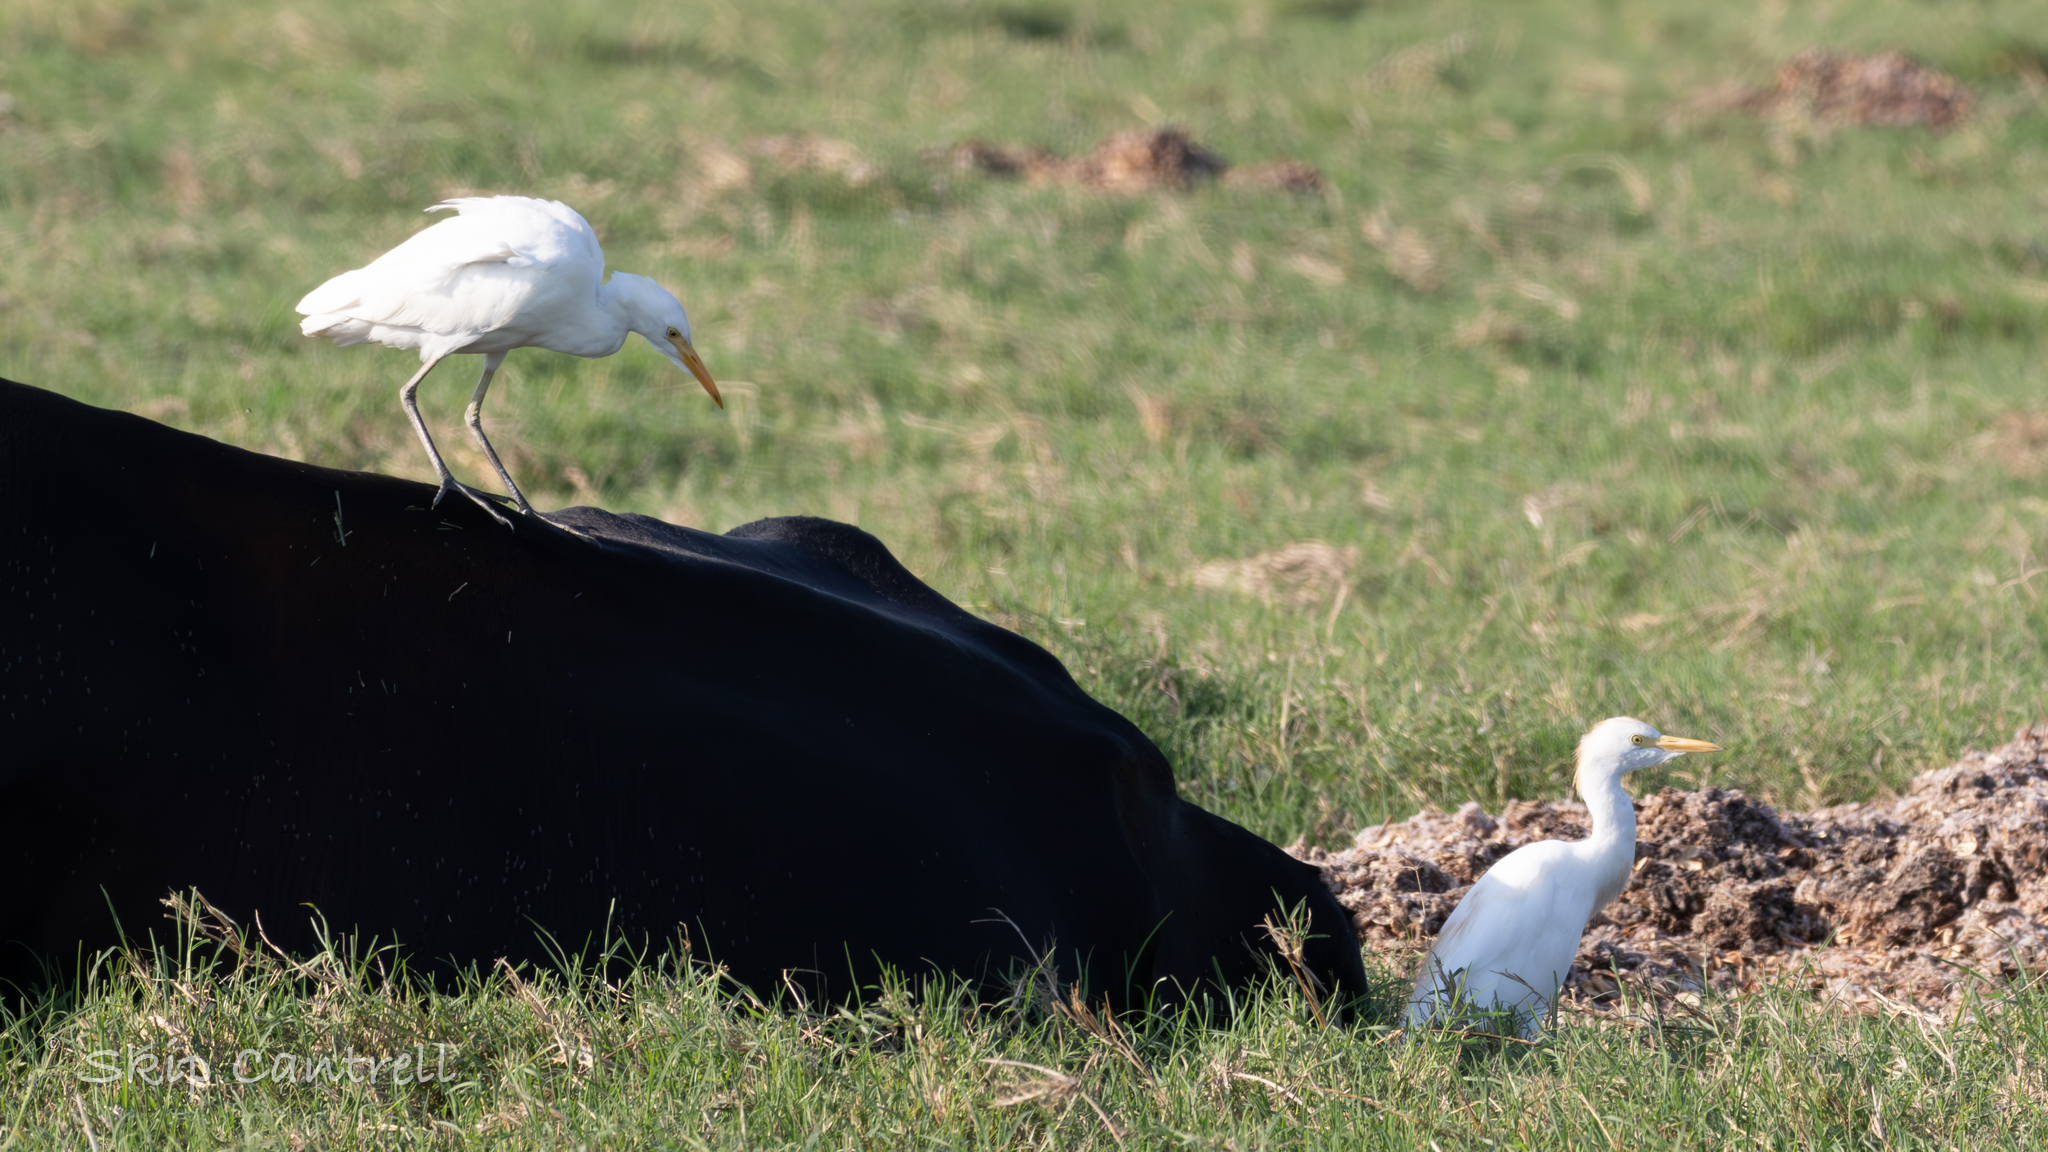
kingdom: Animalia
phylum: Chordata
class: Aves
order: Pelecaniformes
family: Ardeidae
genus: Bubulcus
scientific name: Bubulcus ibis
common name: Cattle egret
